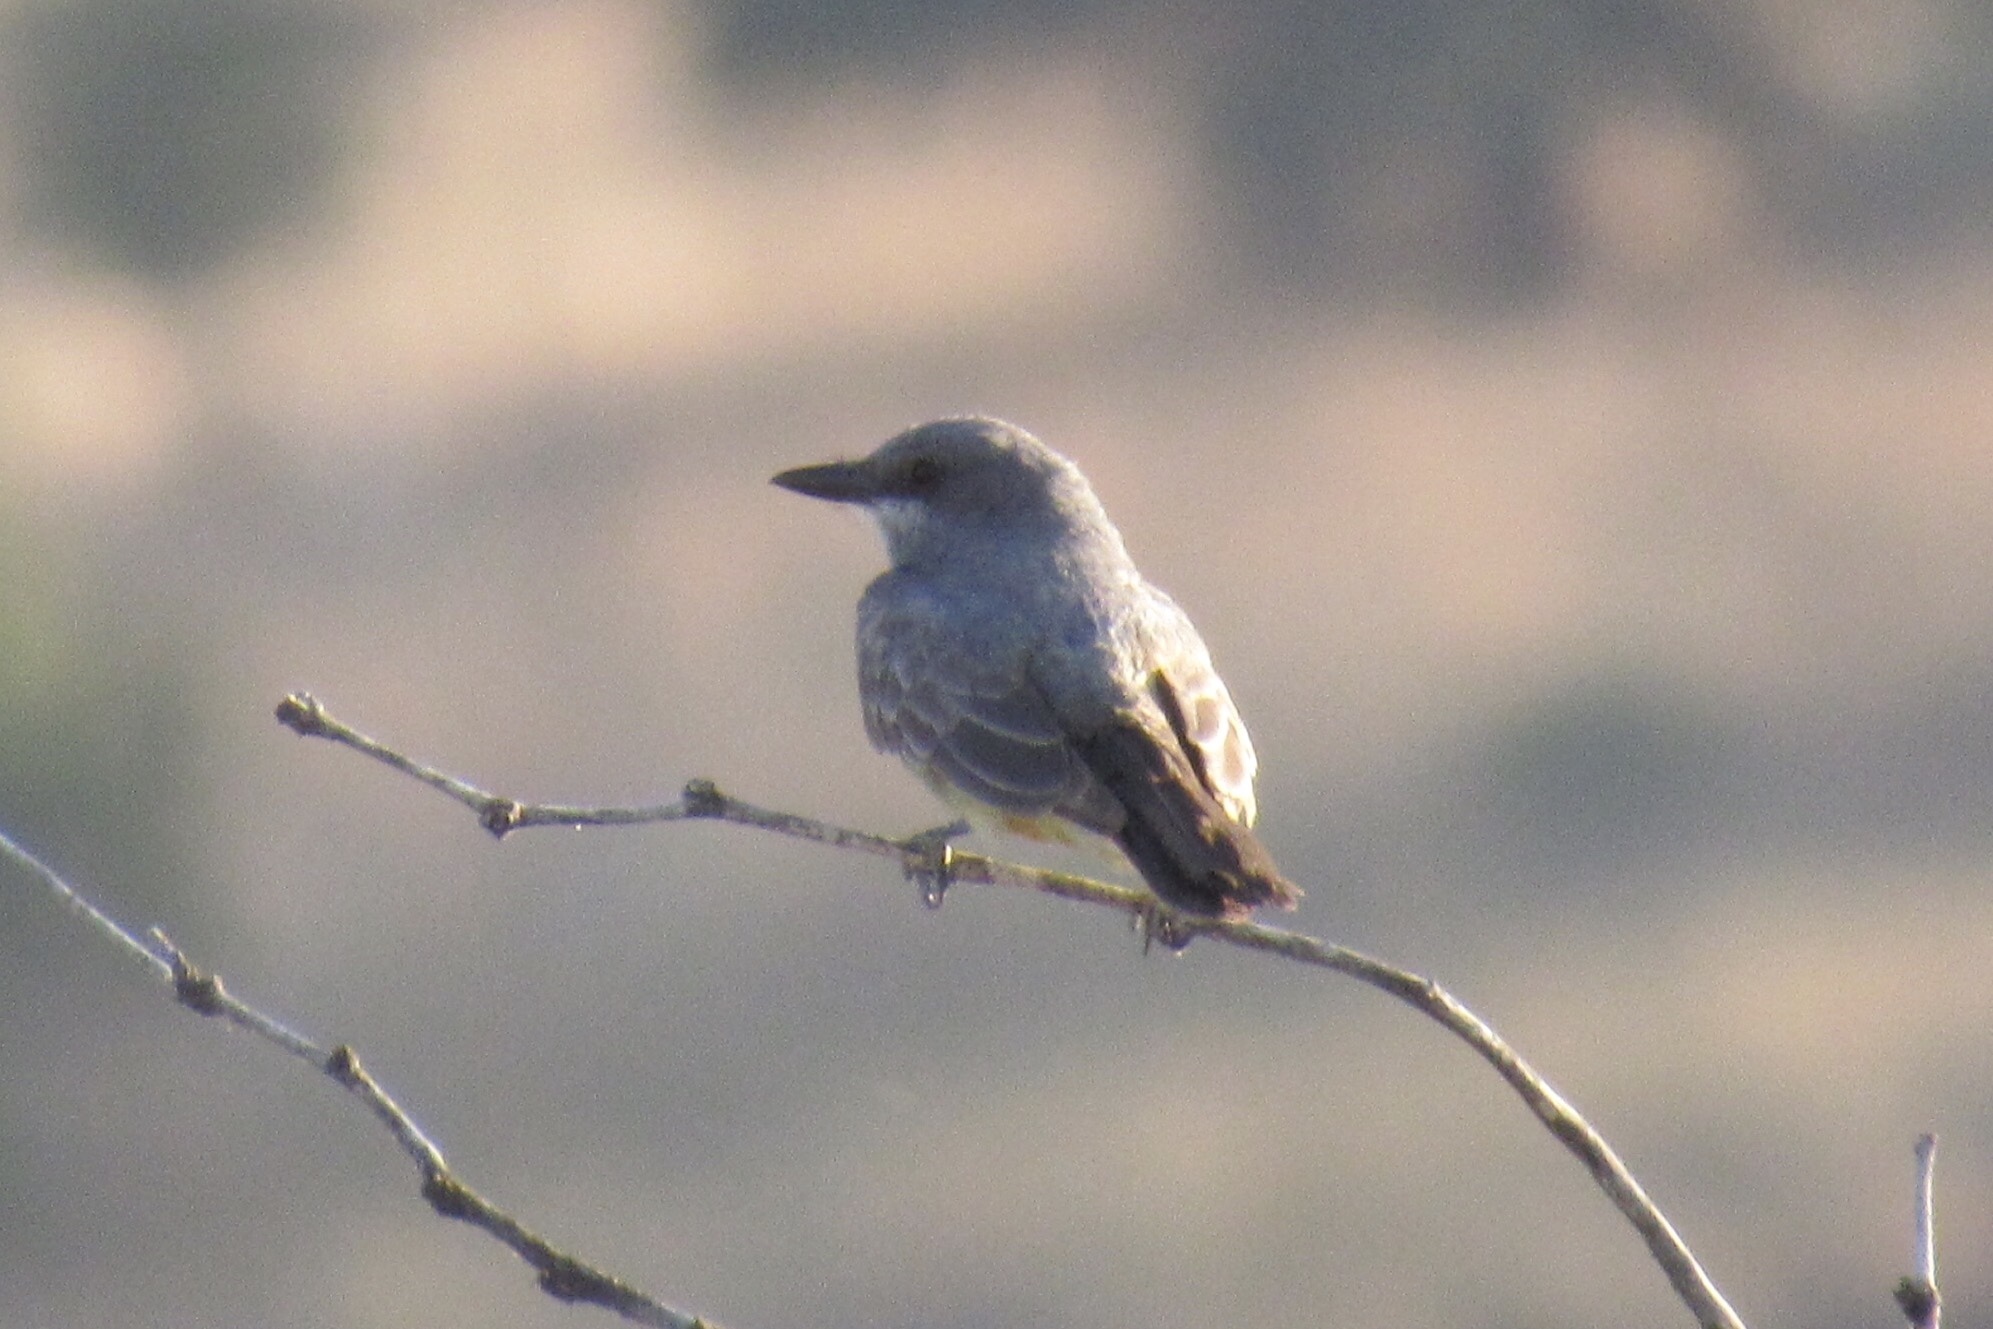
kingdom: Animalia
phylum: Chordata
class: Aves
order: Passeriformes
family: Tyrannidae
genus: Tyrannus
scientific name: Tyrannus vociferans
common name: Cassin's kingbird
